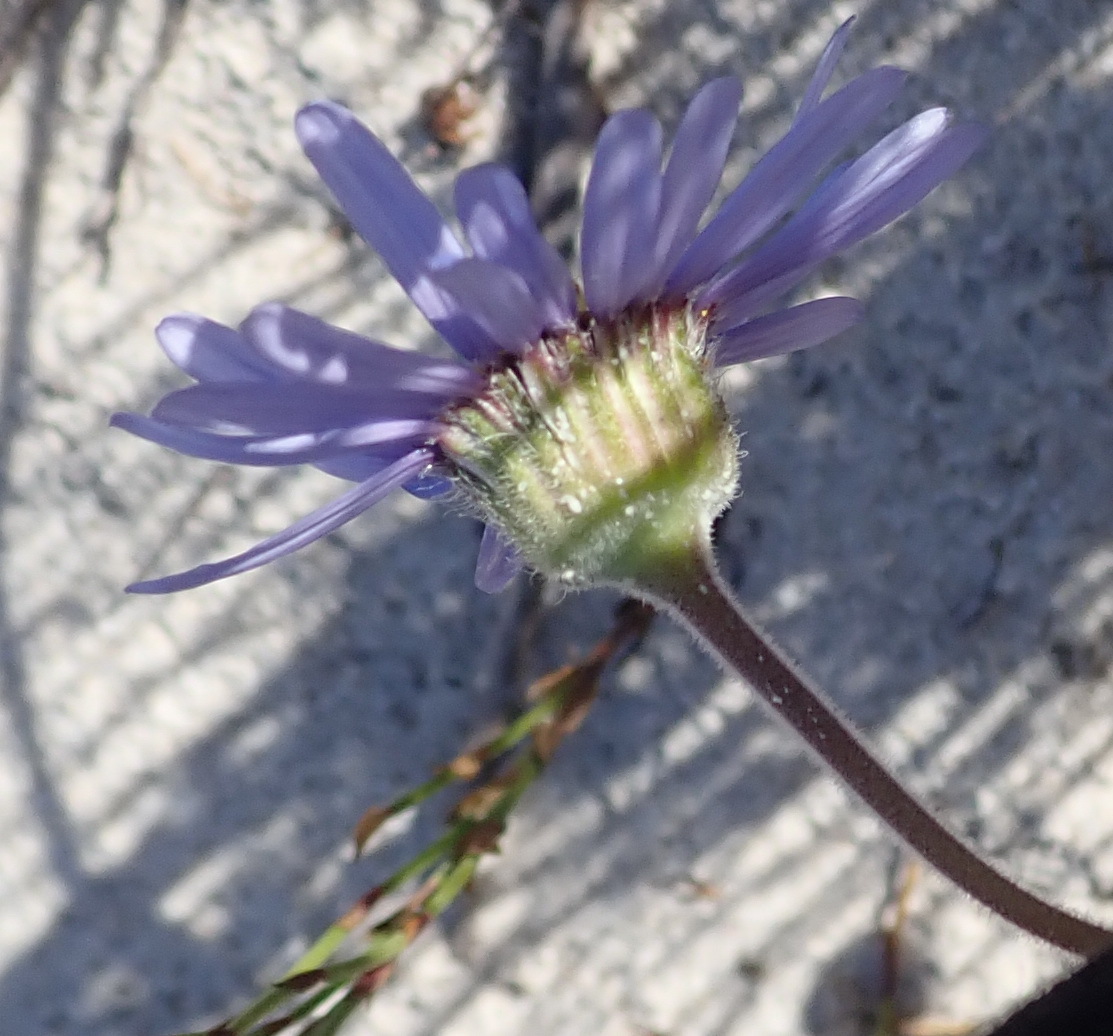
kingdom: Plantae
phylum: Tracheophyta
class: Magnoliopsida
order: Asterales
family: Asteraceae
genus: Felicia
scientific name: Felicia amoena
